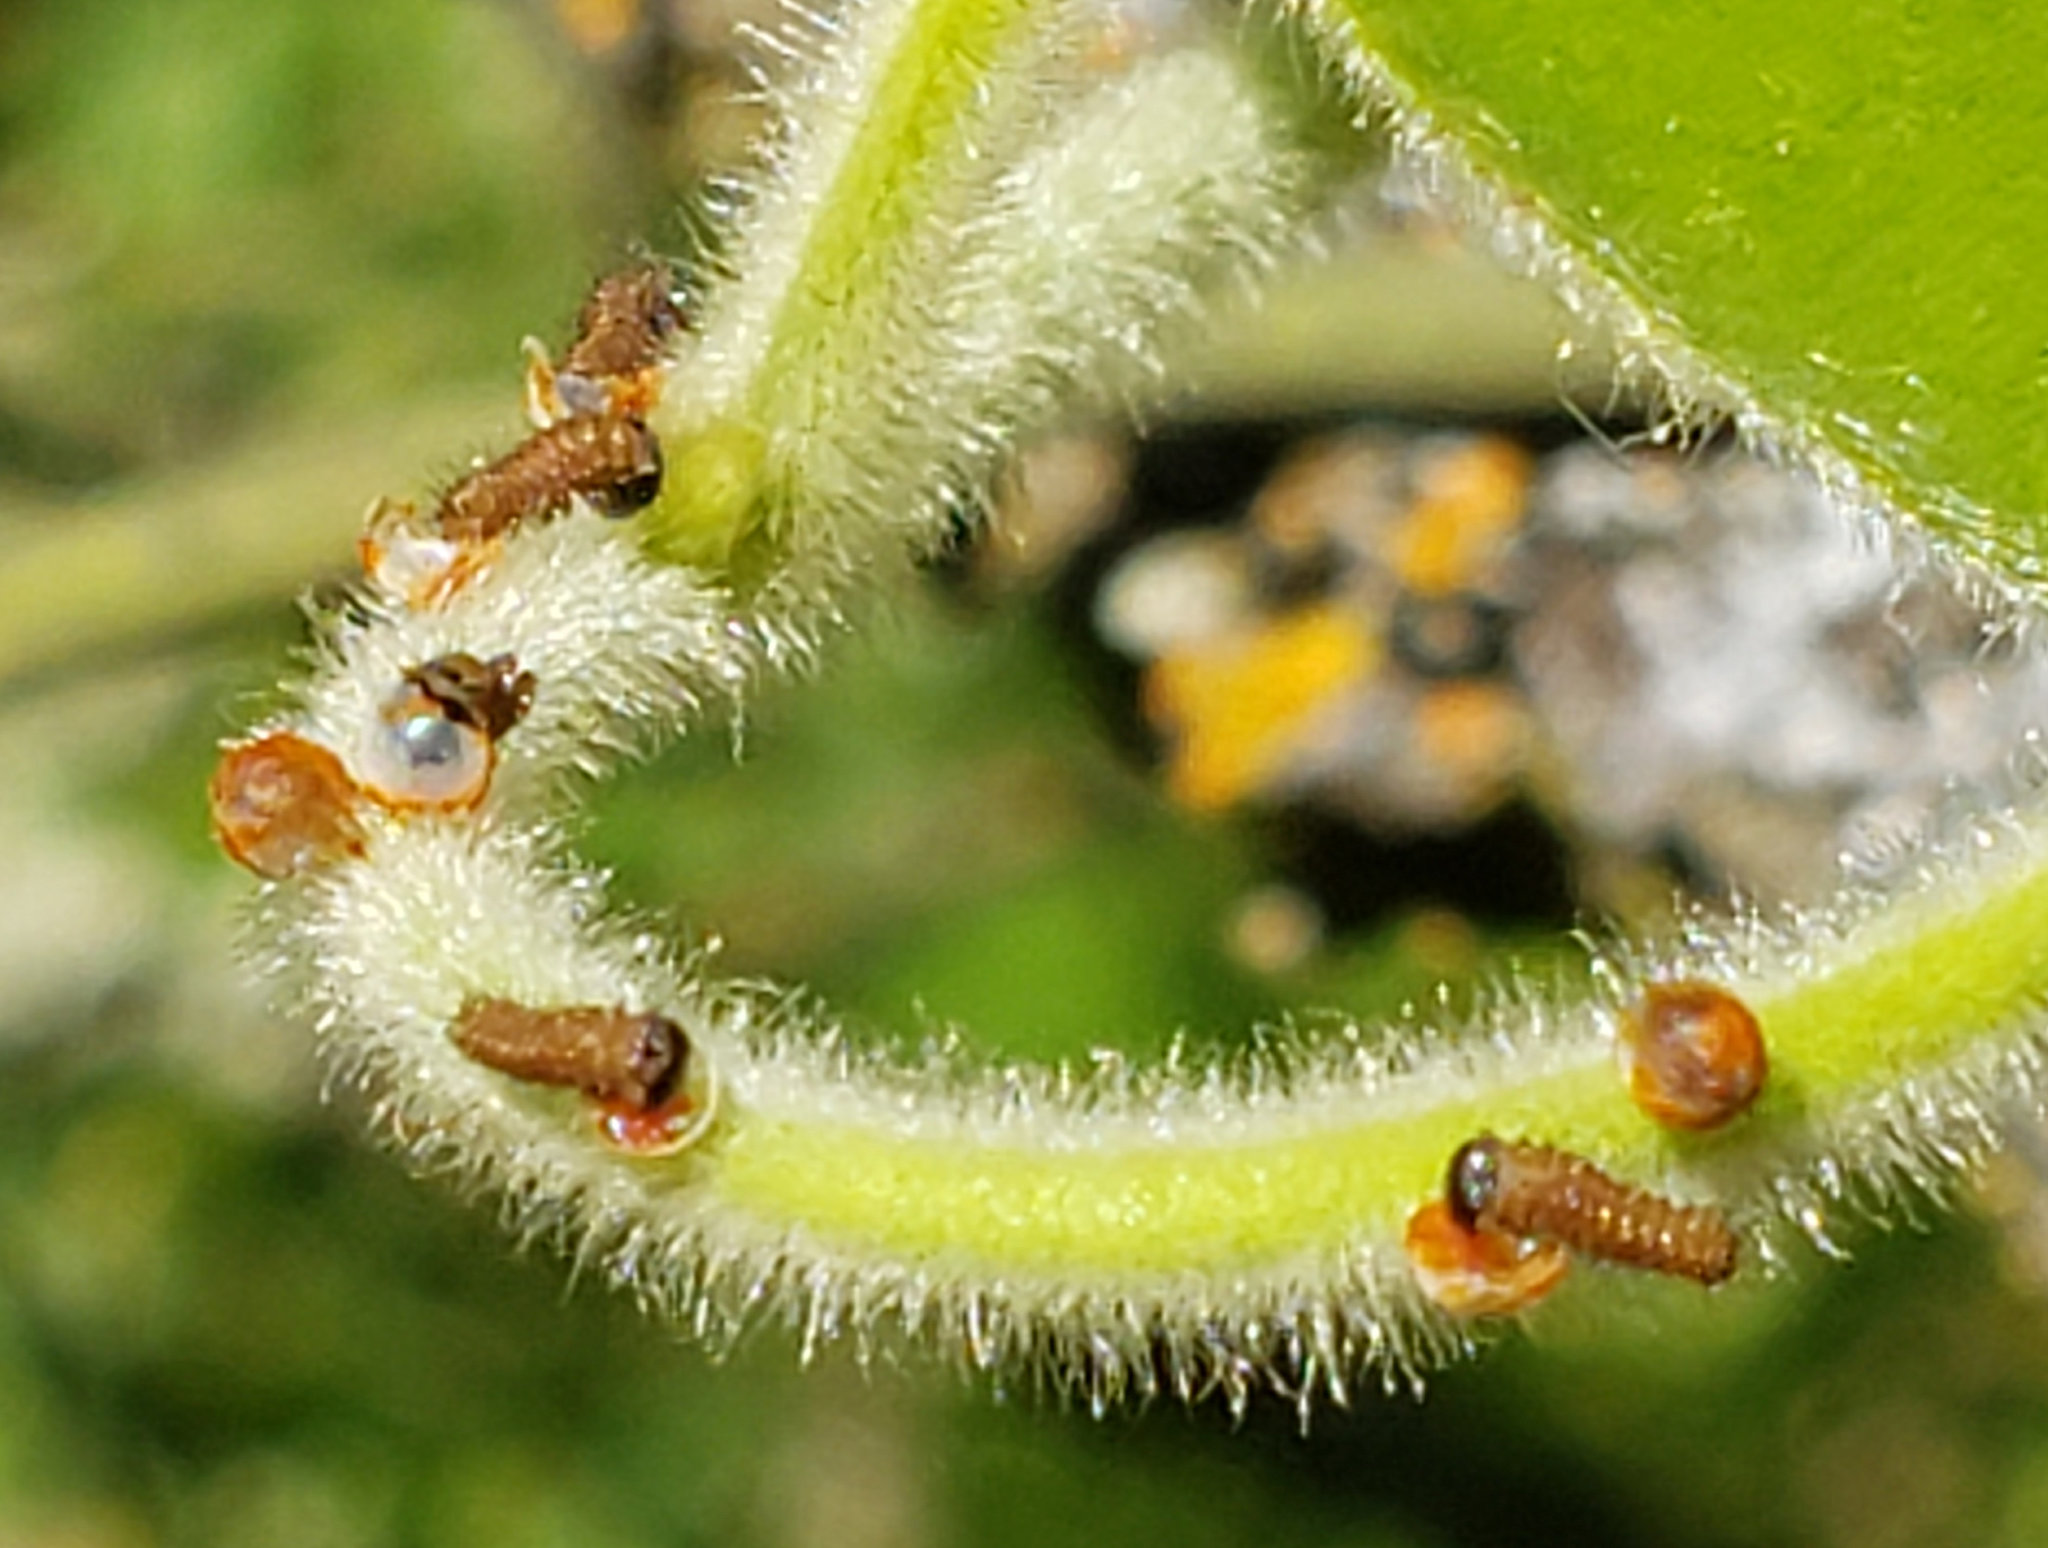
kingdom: Animalia
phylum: Arthropoda
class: Insecta
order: Lepidoptera
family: Papilionidae
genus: Battus
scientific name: Battus philenor
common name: Pipevine swallowtail
